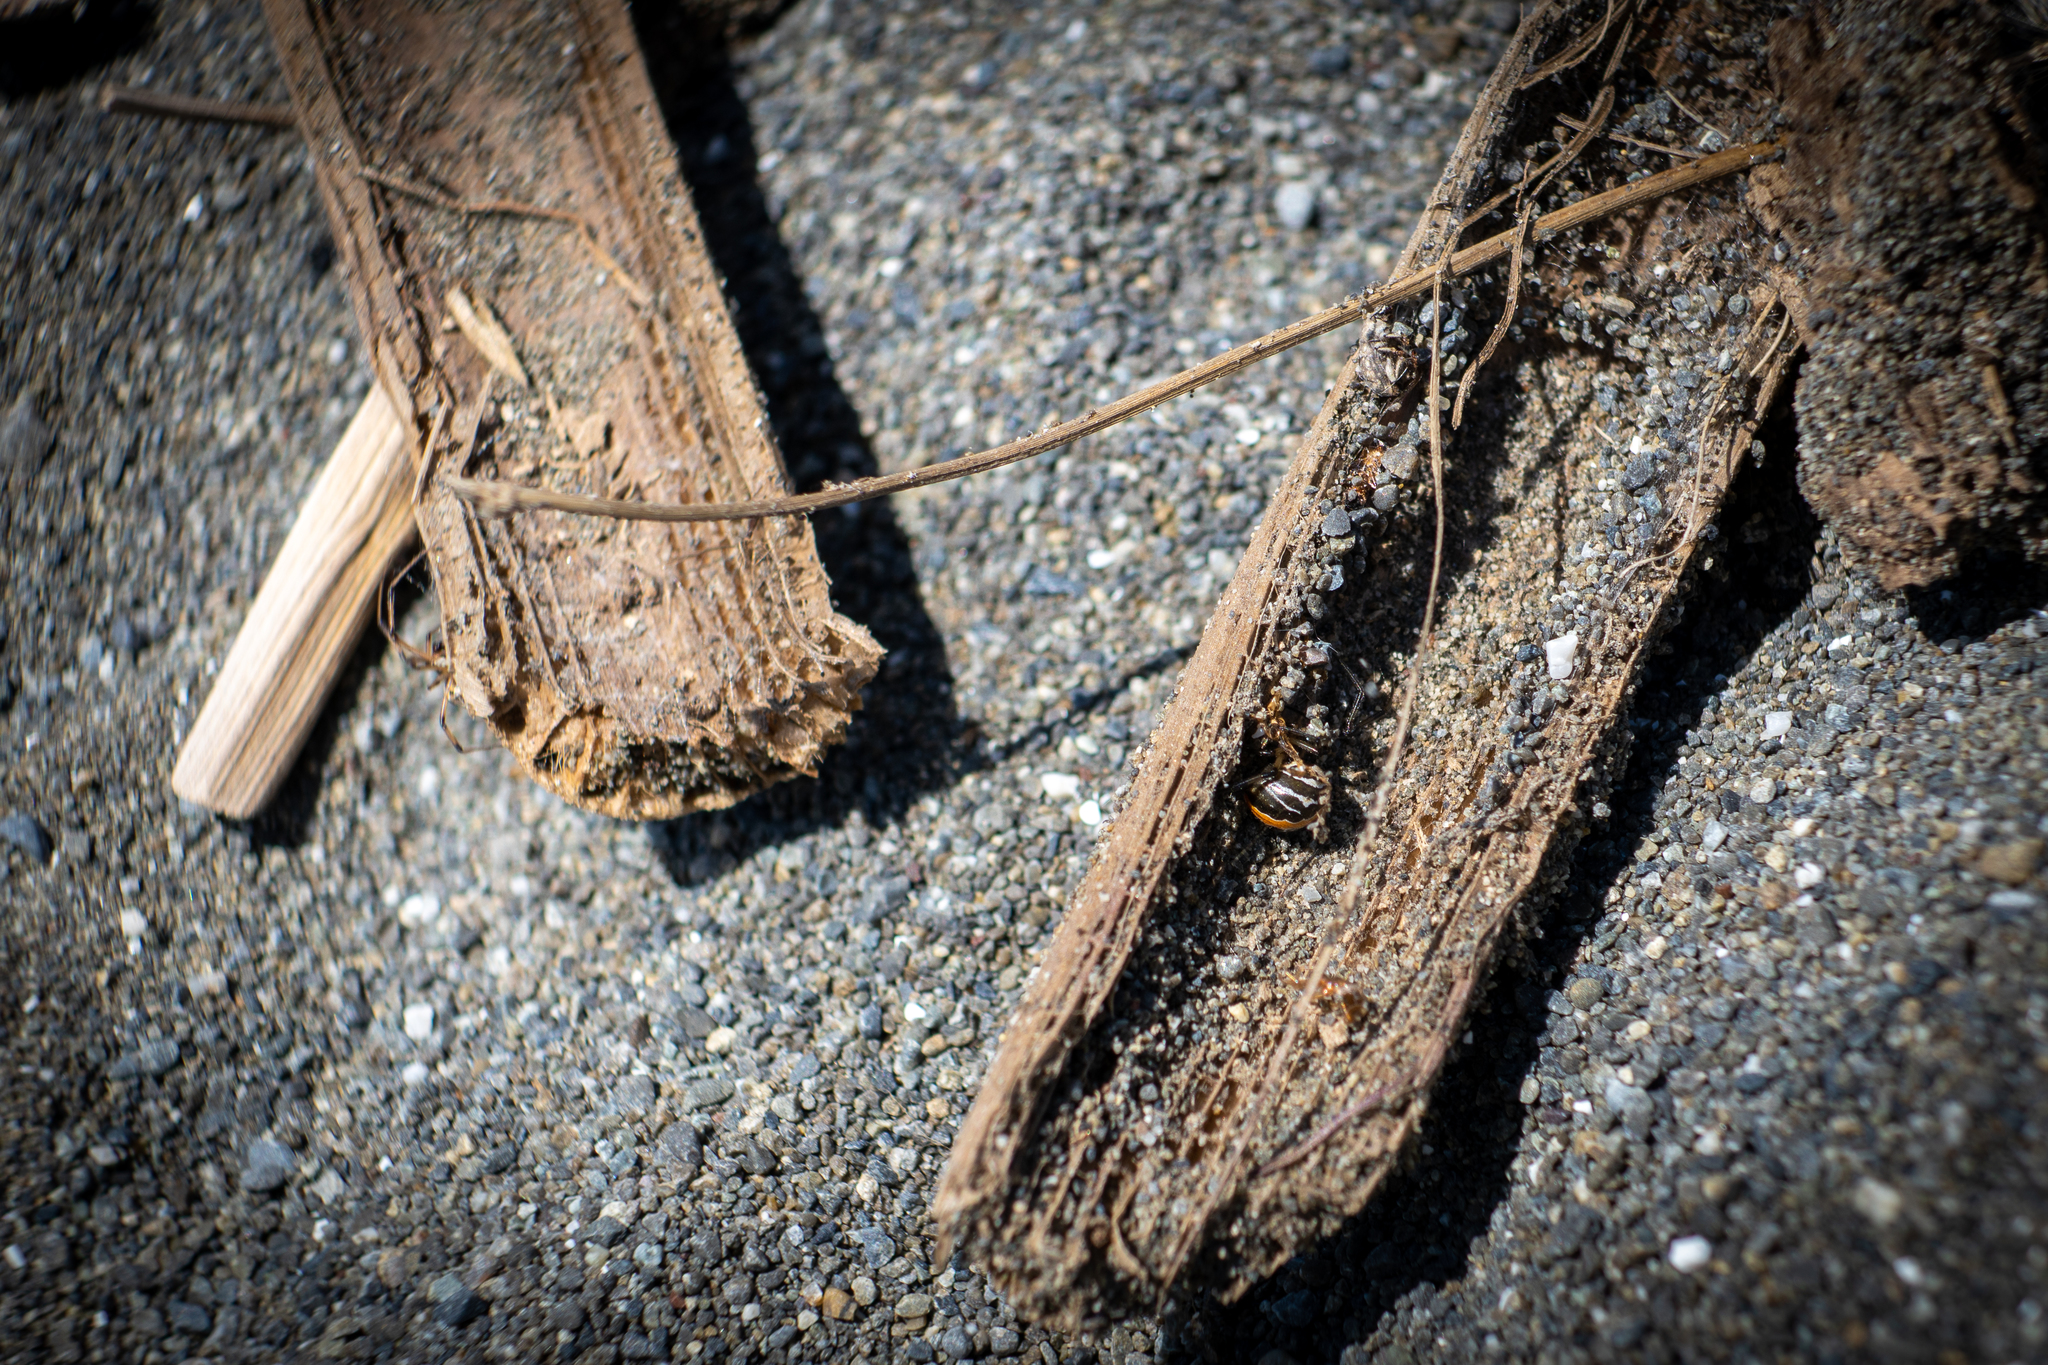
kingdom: Animalia
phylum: Arthropoda
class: Arachnida
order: Araneae
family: Theridiidae
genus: Latrodectus
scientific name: Latrodectus katipo
